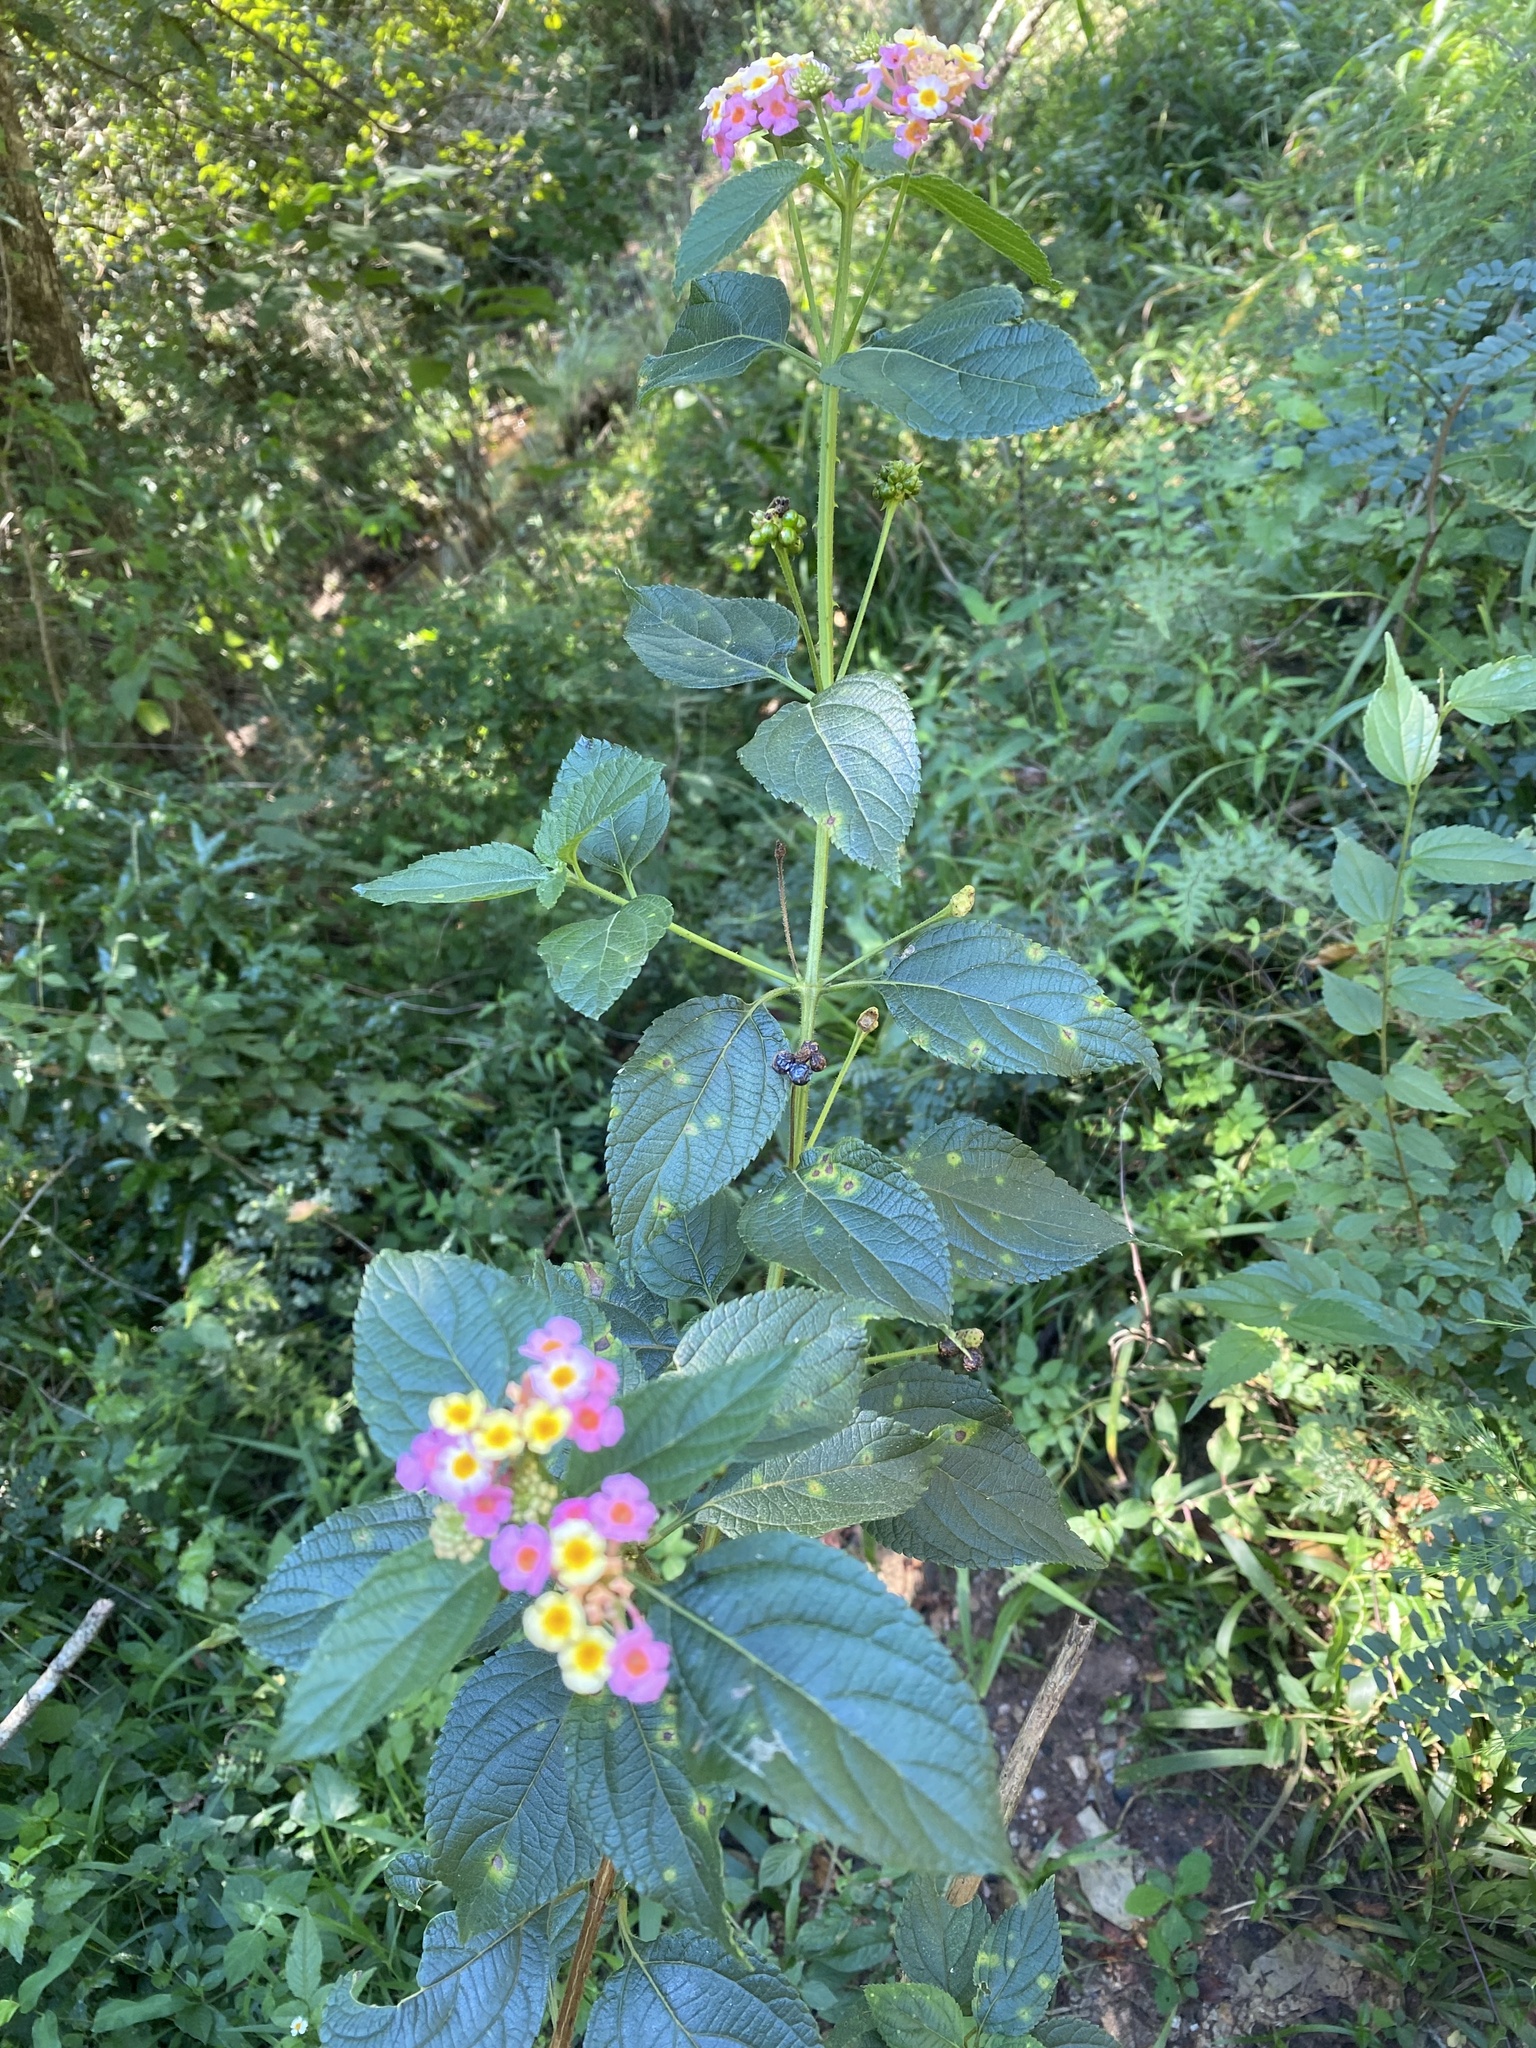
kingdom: Plantae
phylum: Tracheophyta
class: Magnoliopsida
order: Lamiales
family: Verbenaceae
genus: Lantana
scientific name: Lantana camara
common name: Lantana
